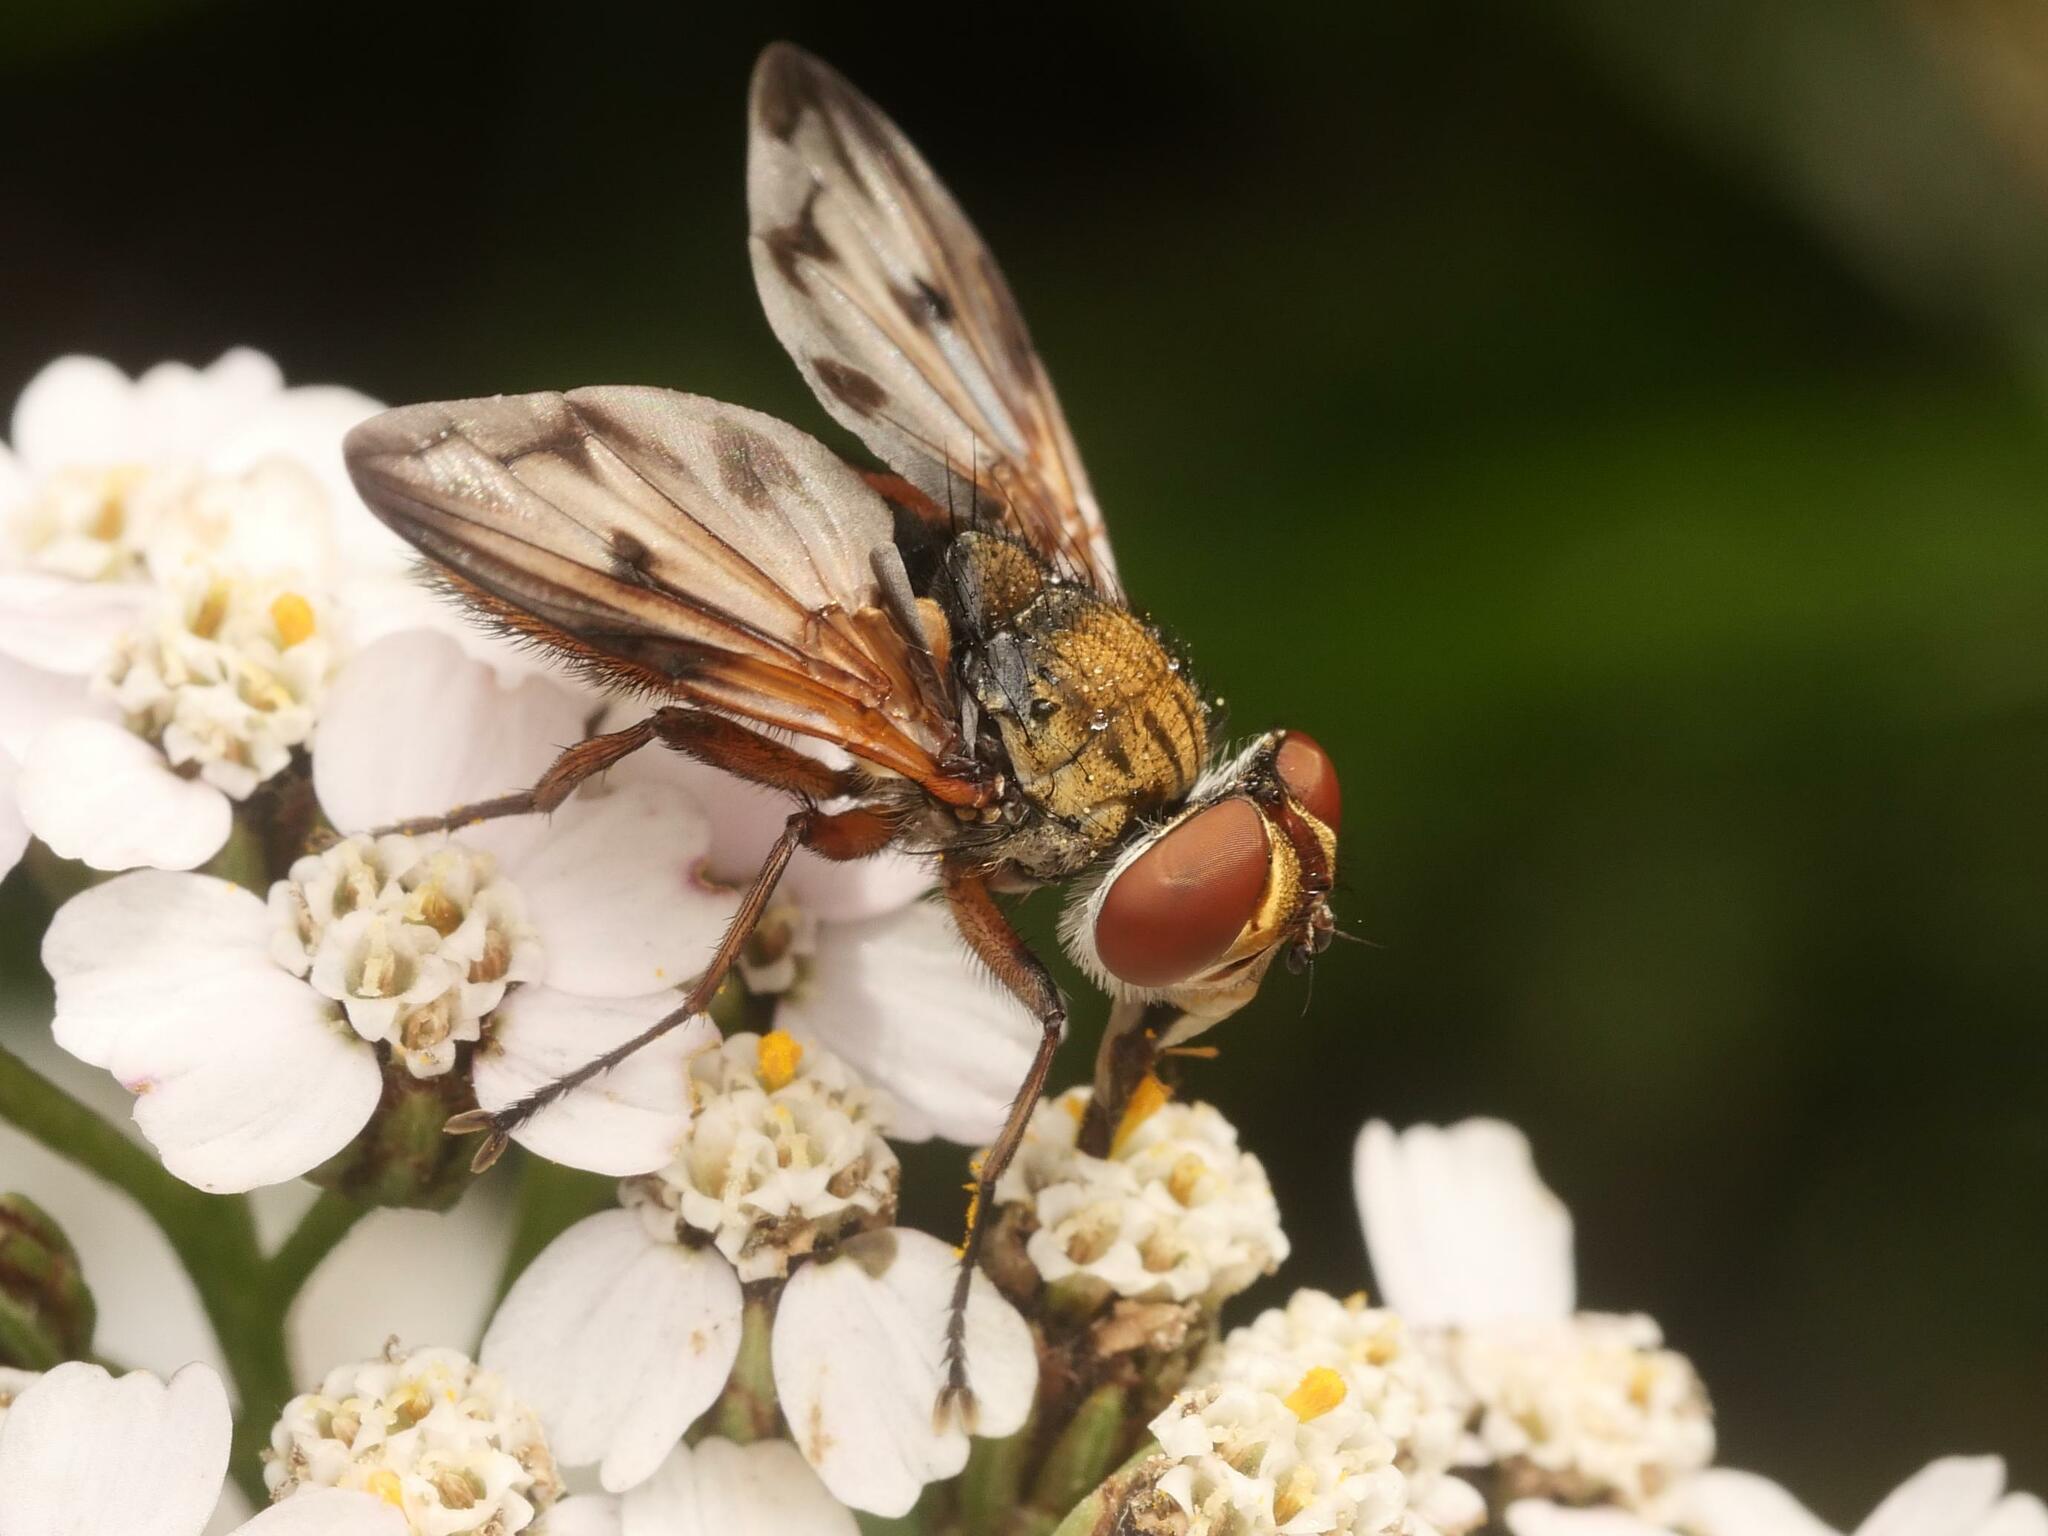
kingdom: Animalia
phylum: Arthropoda
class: Insecta
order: Diptera
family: Tachinidae
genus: Ectophasia
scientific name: Ectophasia crassipennis
